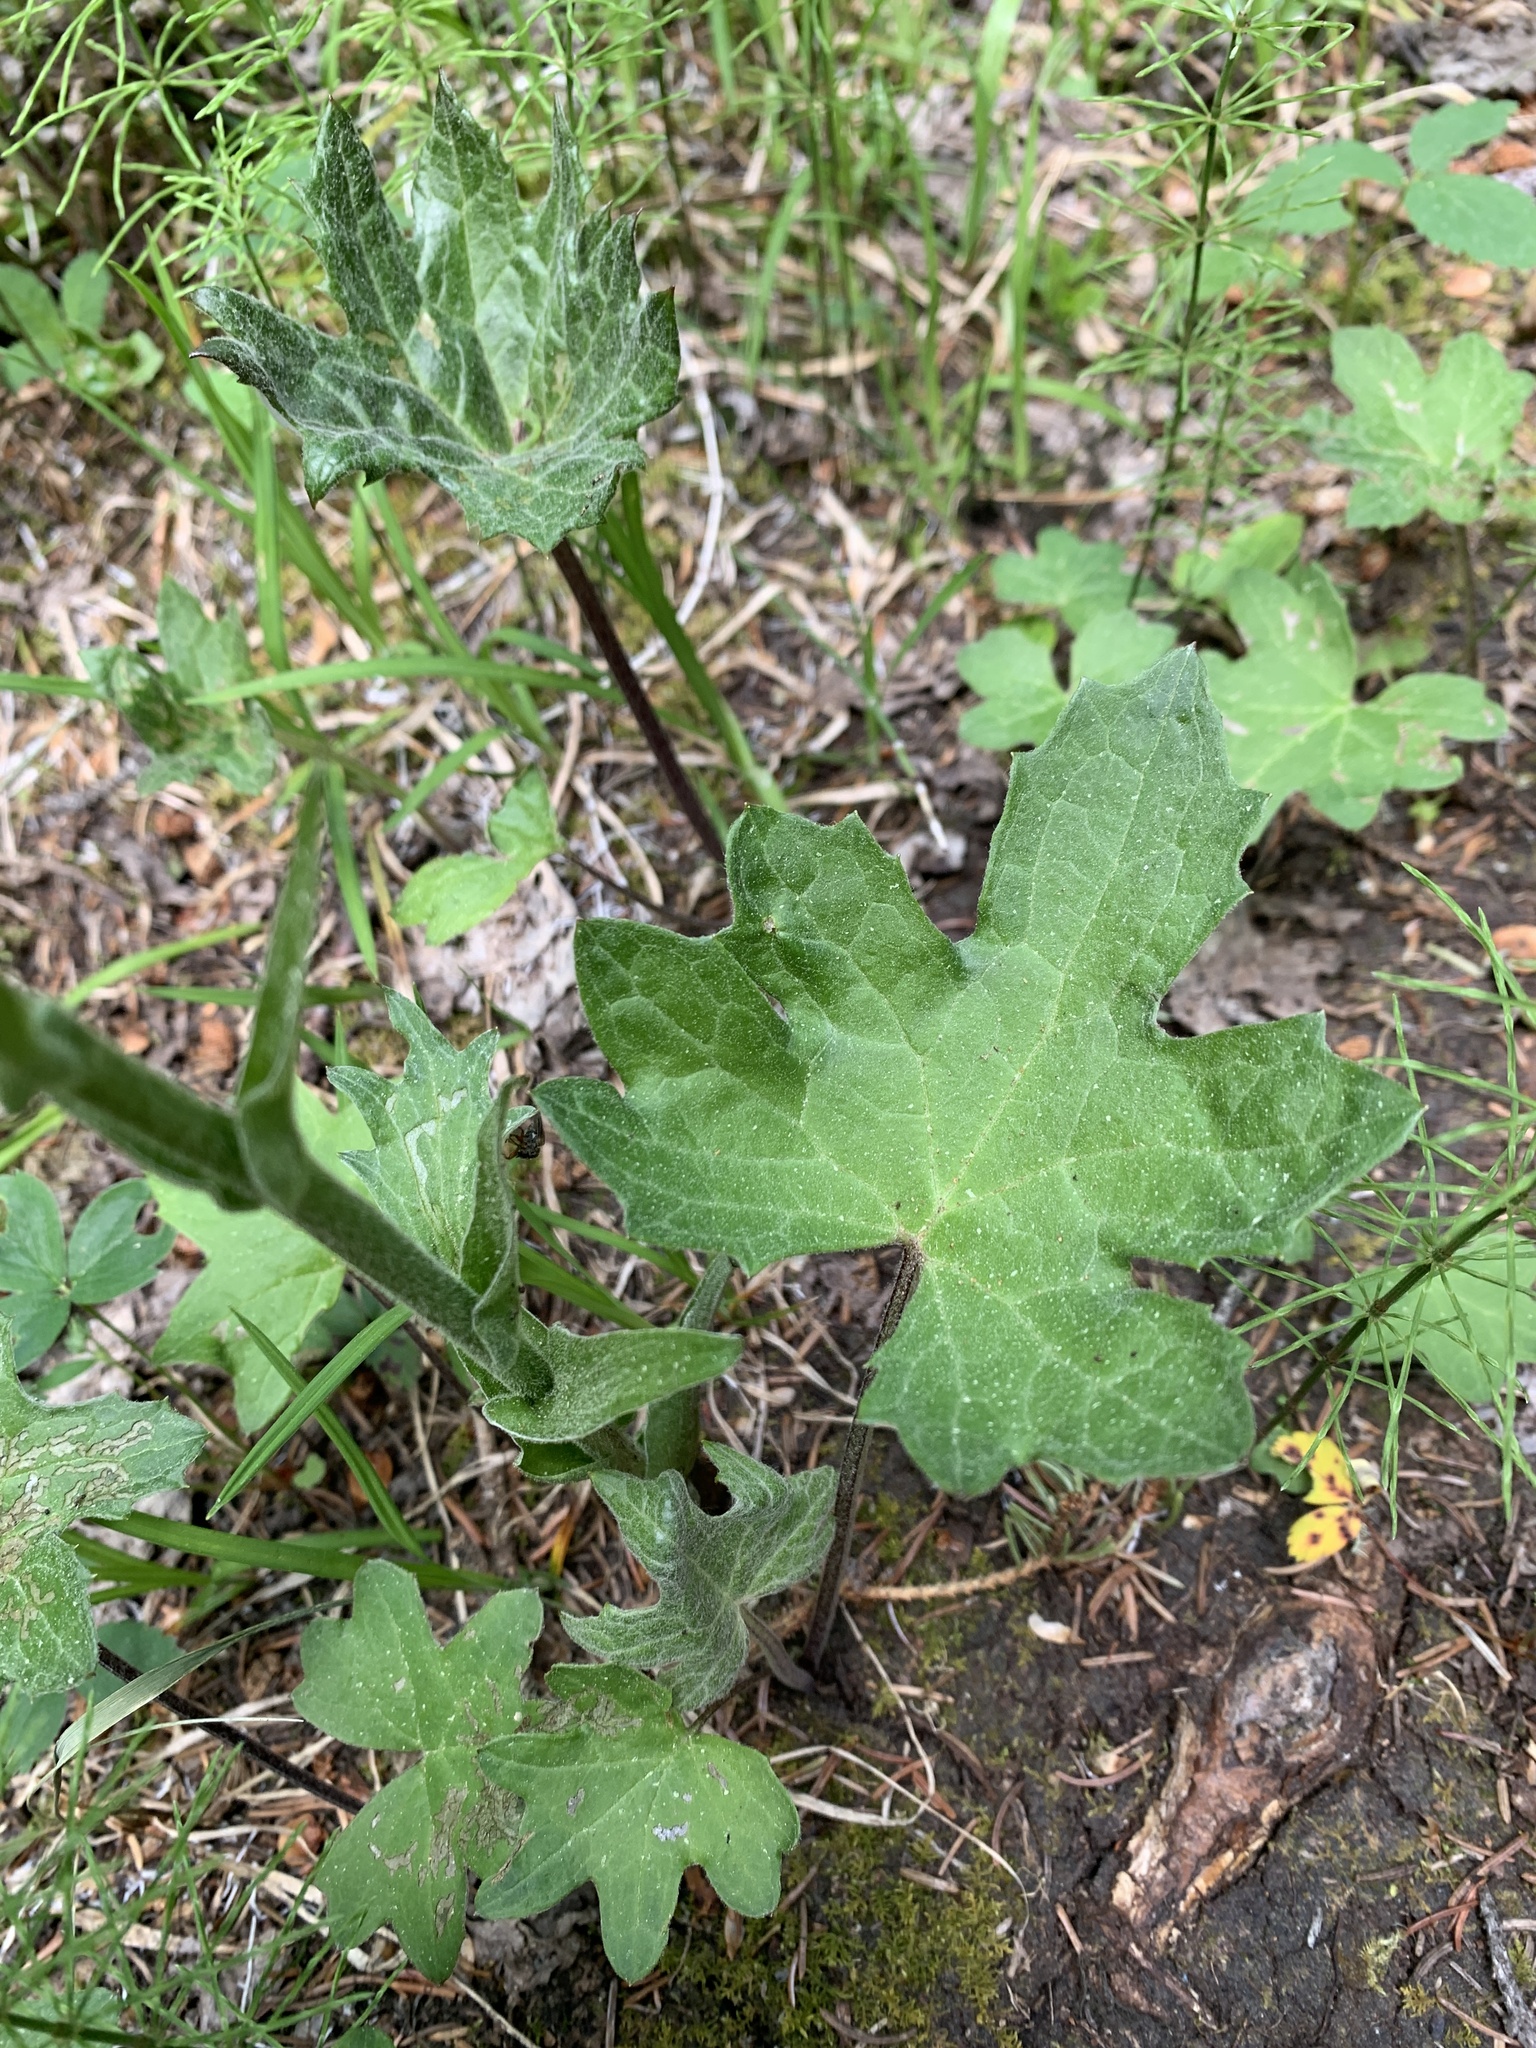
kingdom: Plantae
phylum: Tracheophyta
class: Magnoliopsida
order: Asterales
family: Asteraceae
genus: Petasites
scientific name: Petasites frigidus
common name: Arctic butterbur
